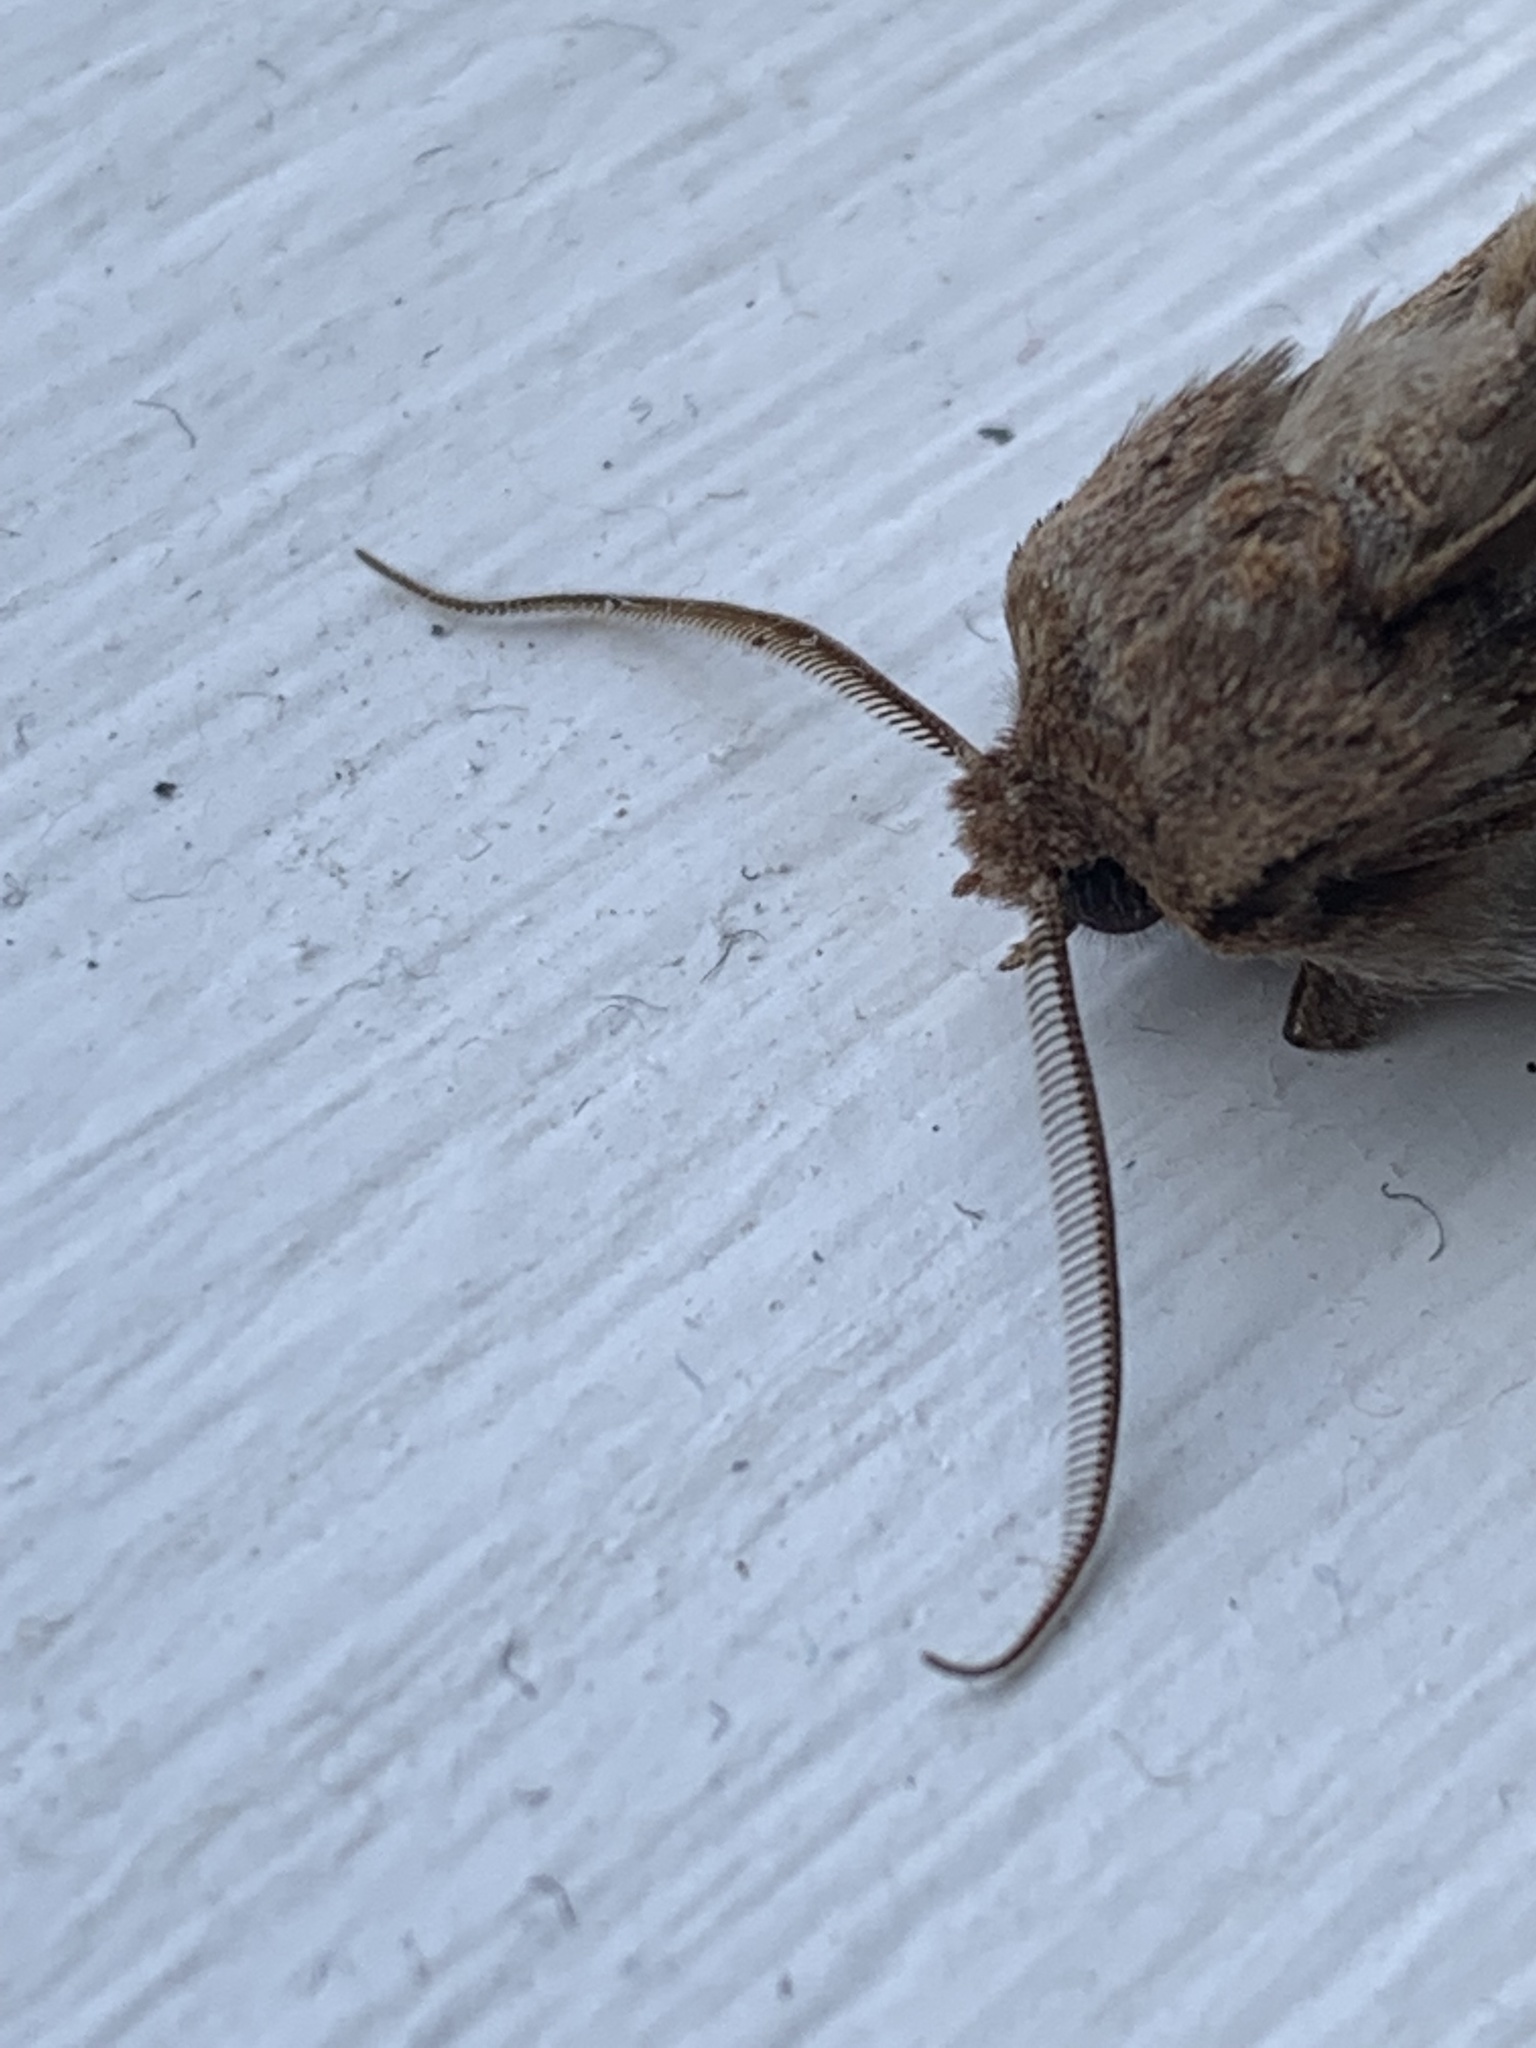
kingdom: Animalia
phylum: Arthropoda
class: Insecta
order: Lepidoptera
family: Noctuidae
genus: Ichneutica
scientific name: Ichneutica
